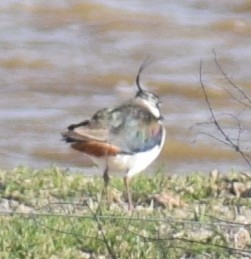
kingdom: Animalia
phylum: Chordata
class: Aves
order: Charadriiformes
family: Charadriidae
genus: Vanellus
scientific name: Vanellus vanellus
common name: Northern lapwing
